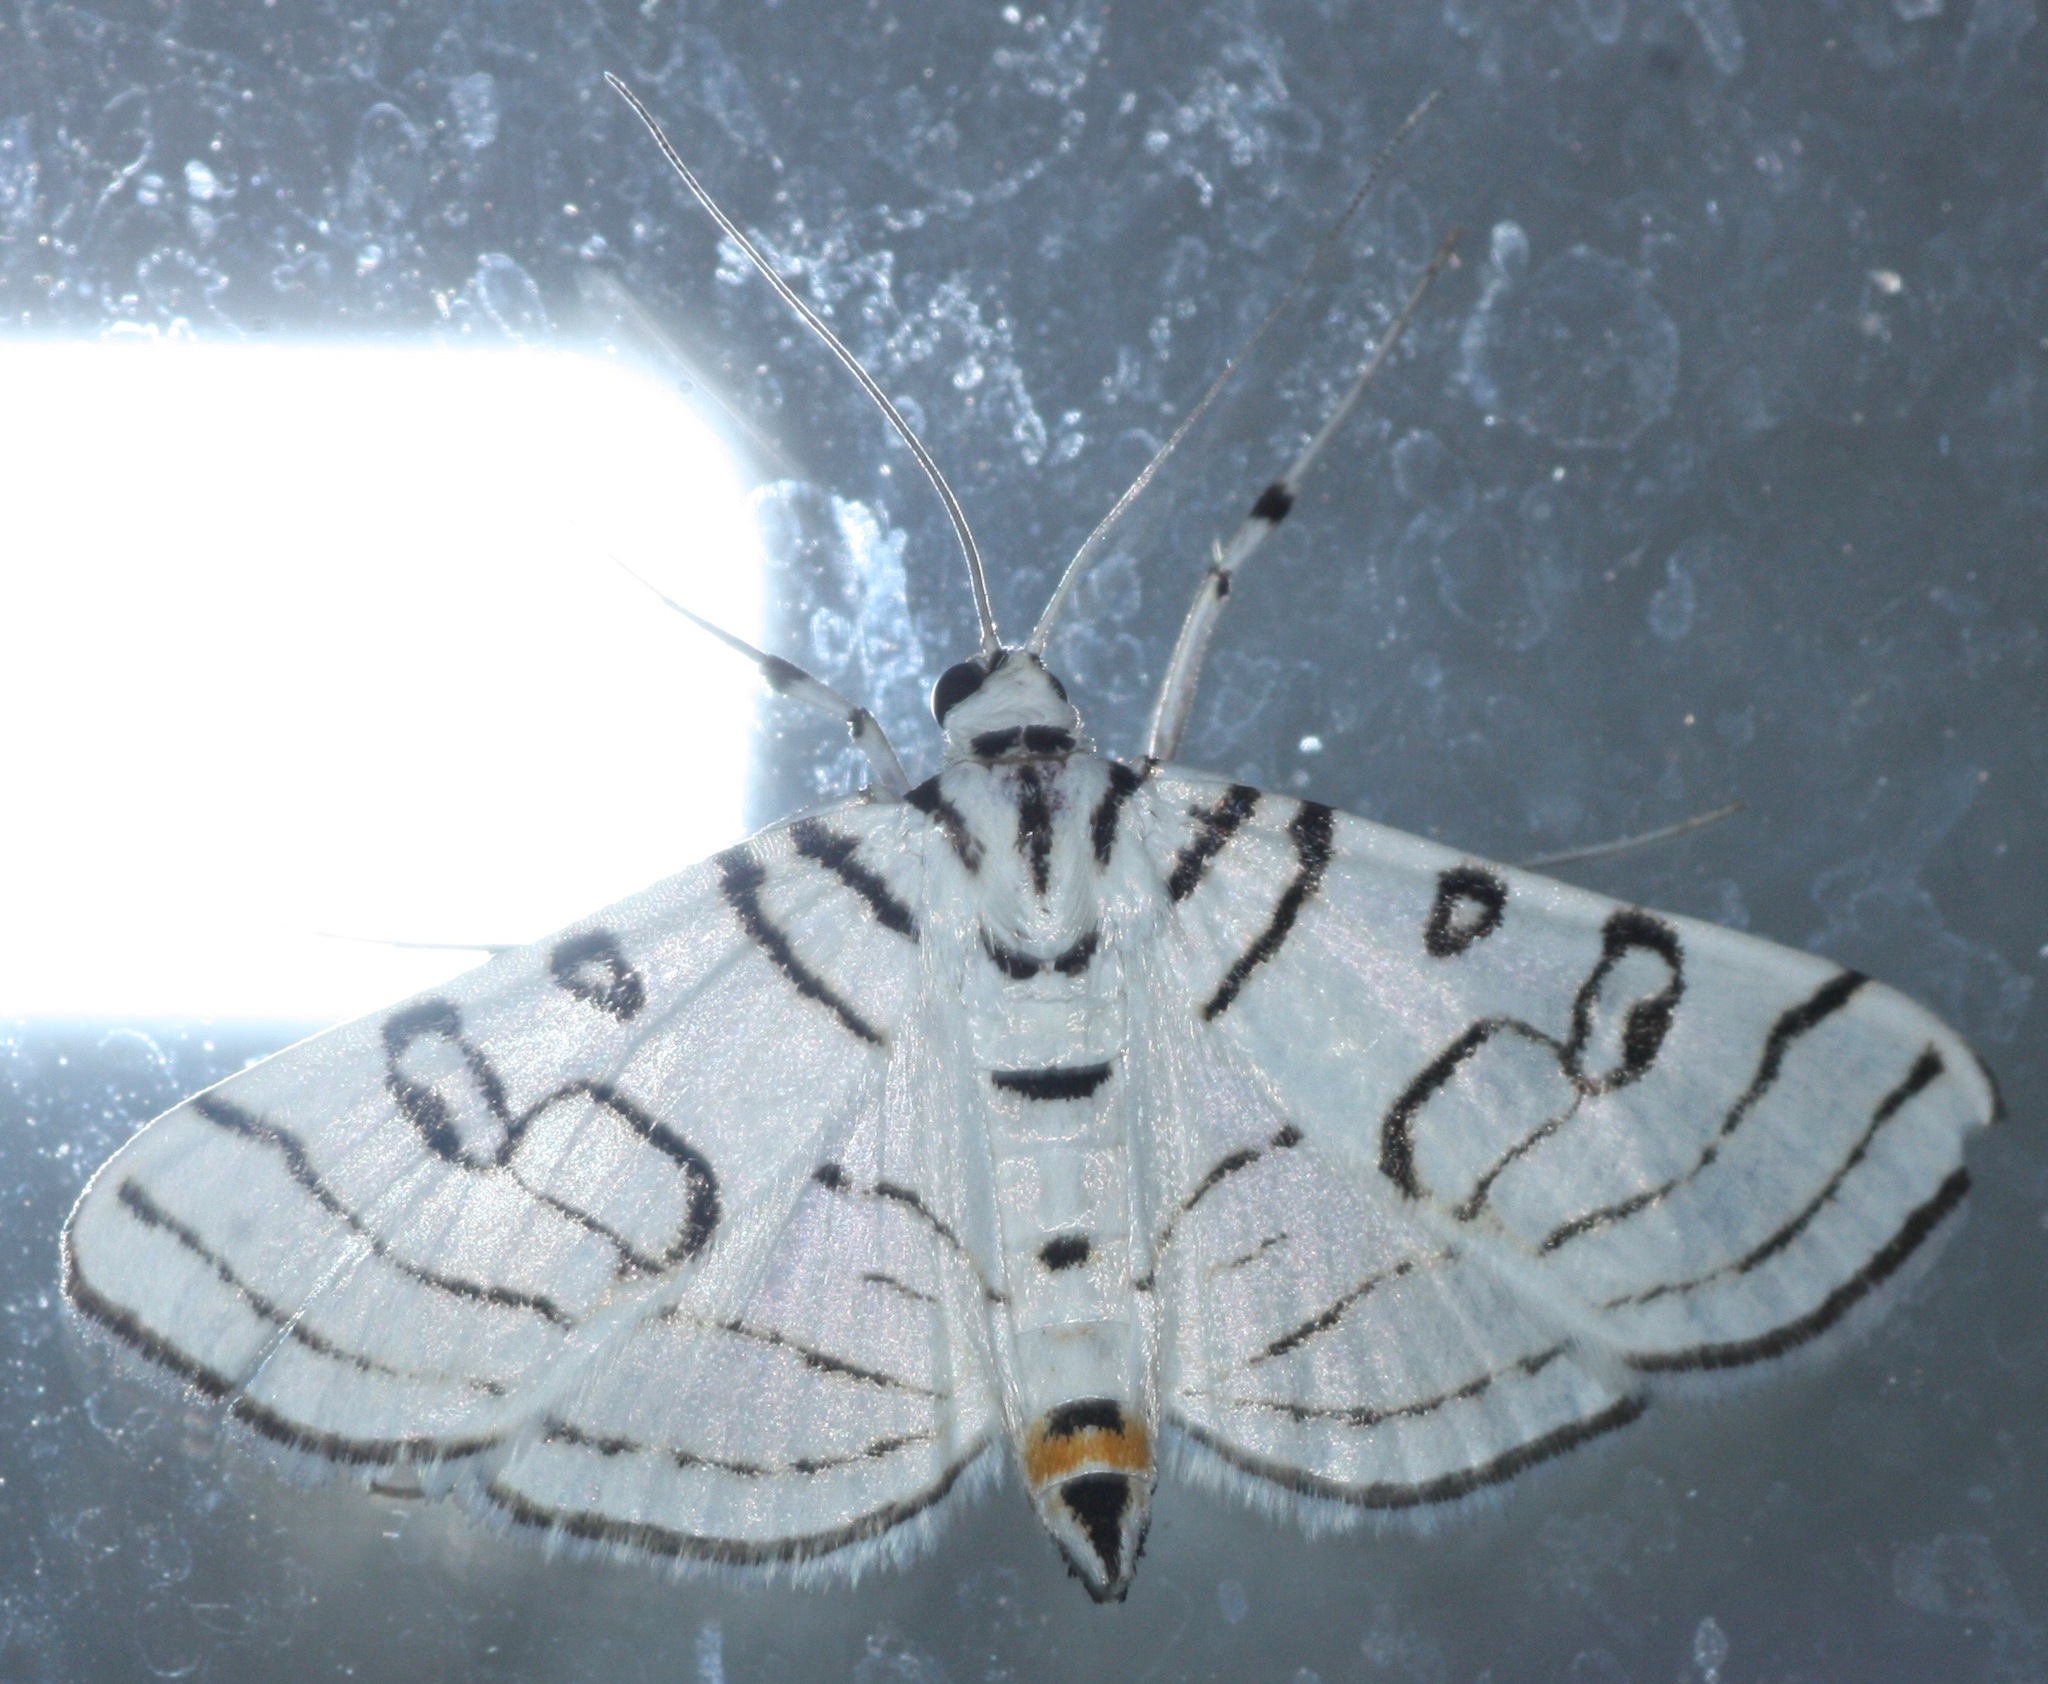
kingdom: Animalia
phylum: Arthropoda
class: Insecta
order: Lepidoptera
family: Crambidae
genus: Conchylodes
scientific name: Conchylodes concinnalis
